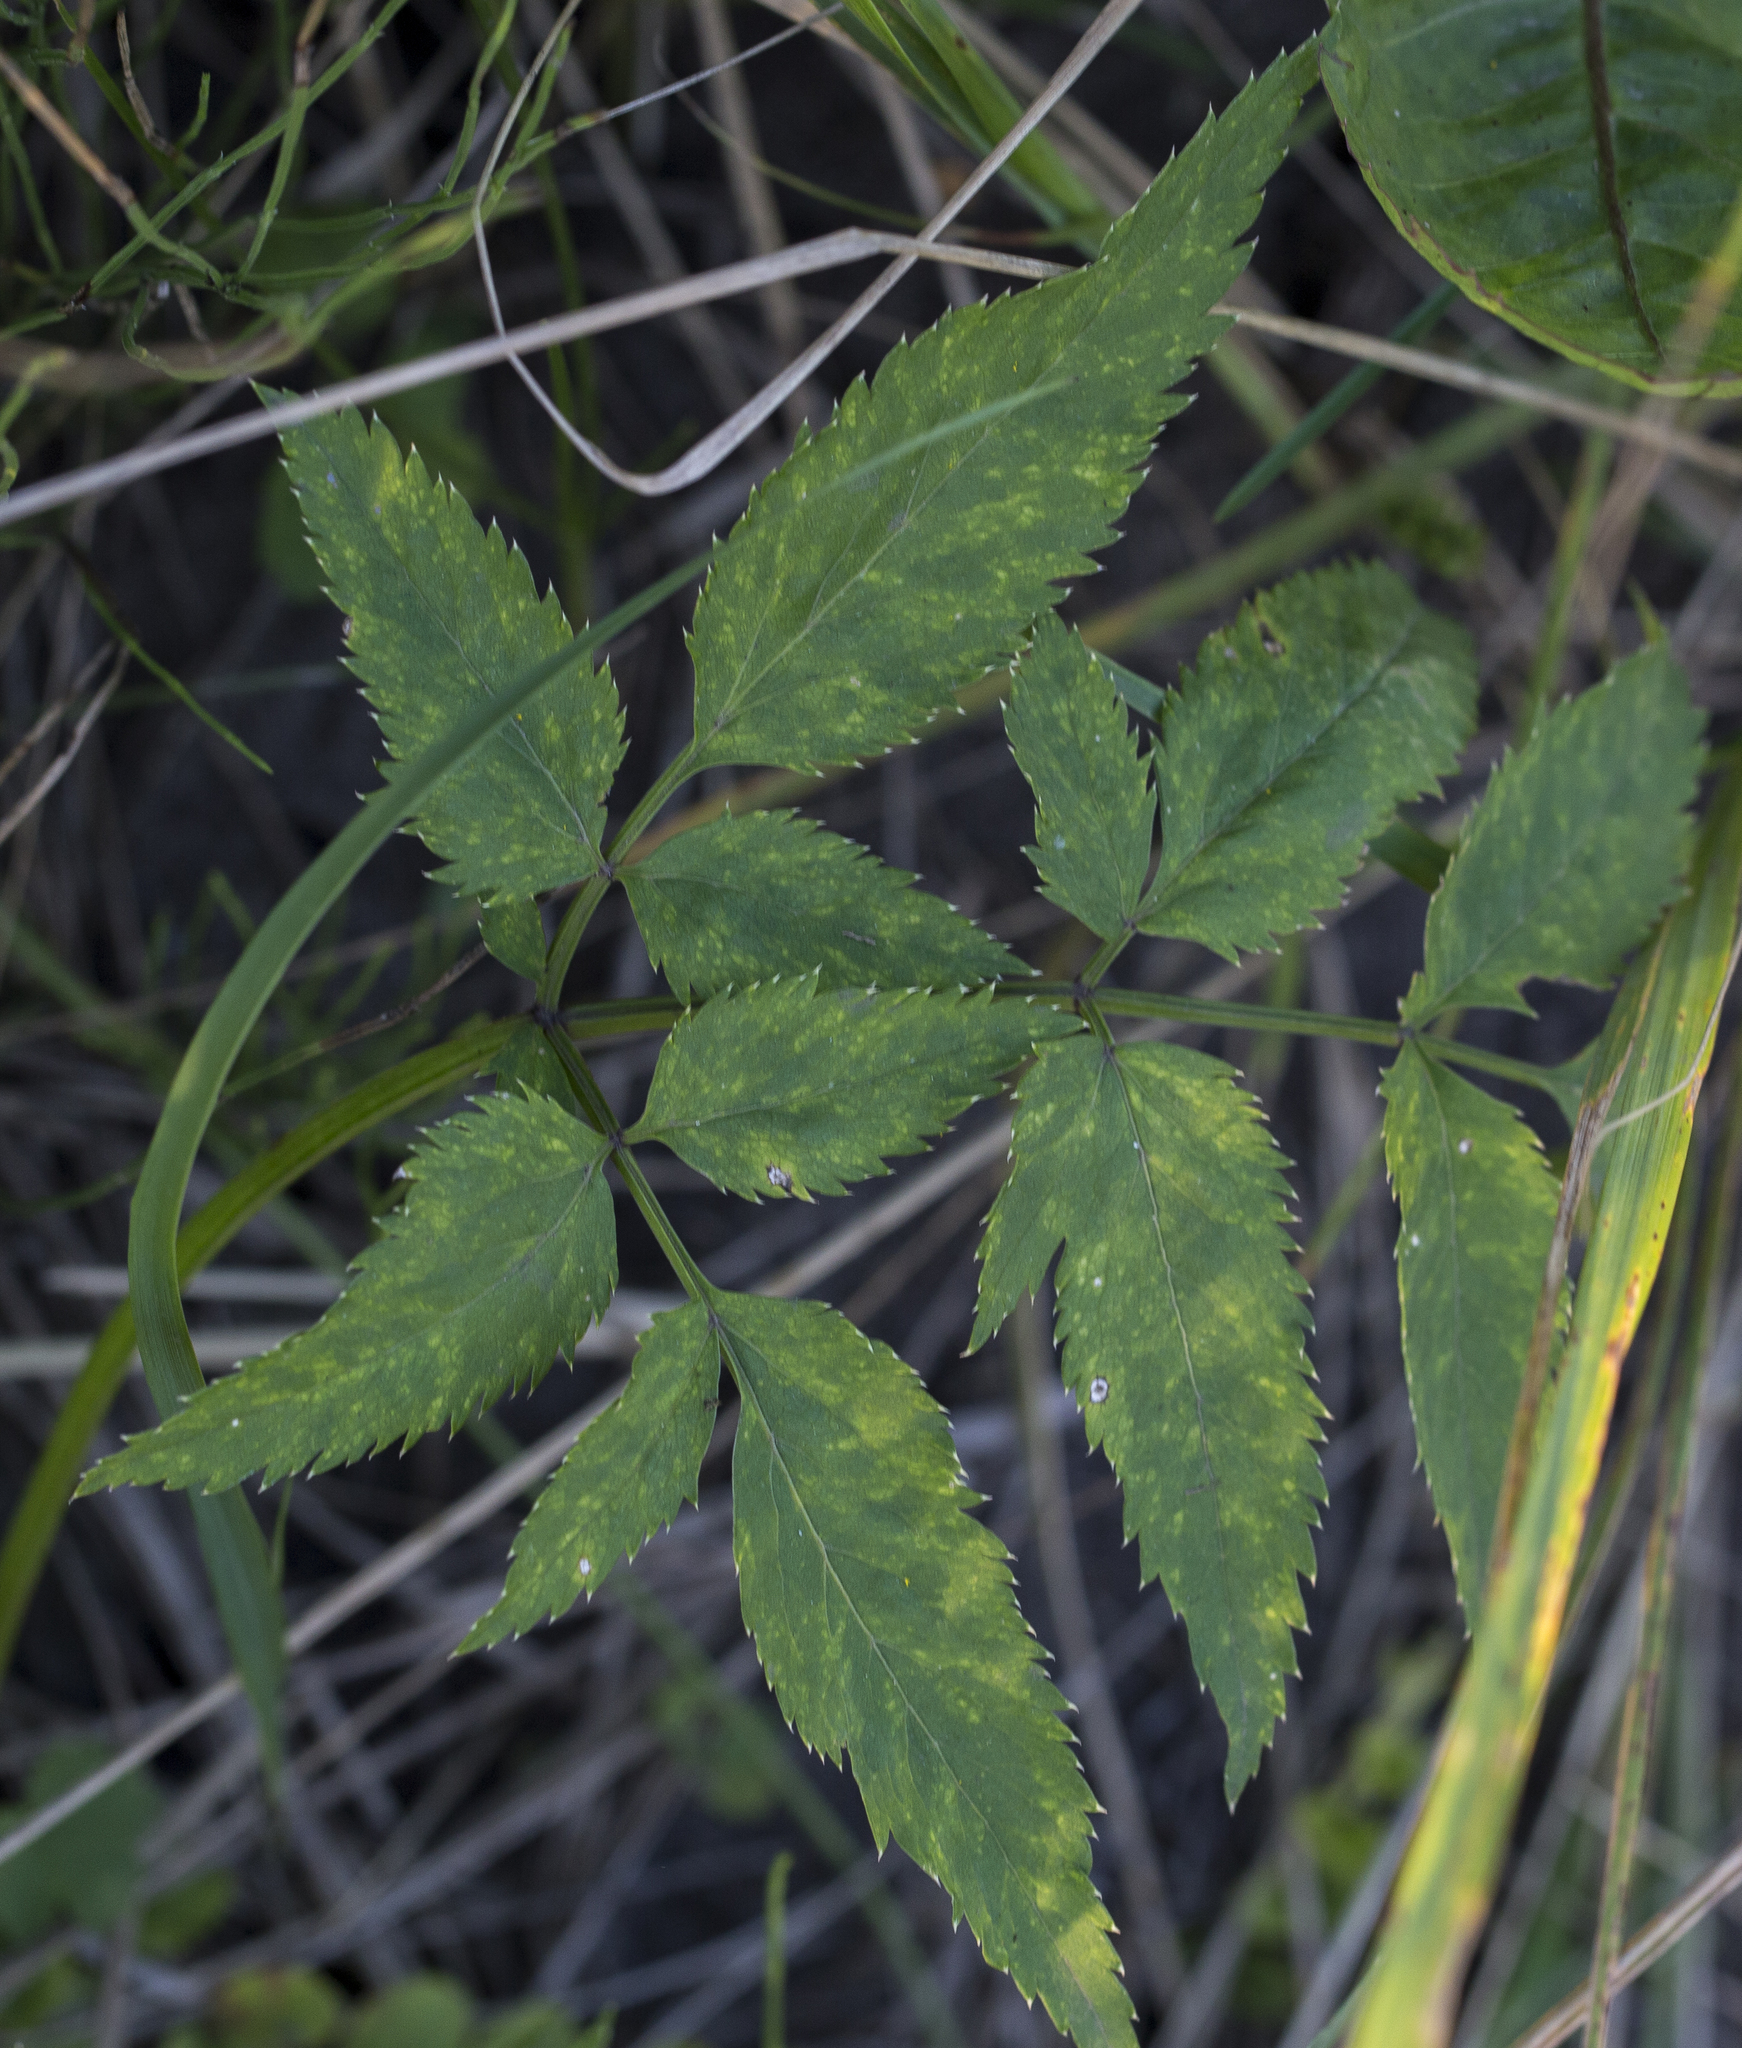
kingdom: Plantae
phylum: Tracheophyta
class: Magnoliopsida
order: Apiales
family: Apiaceae
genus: Angelica
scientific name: Angelica sylvestris
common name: Wild angelica
